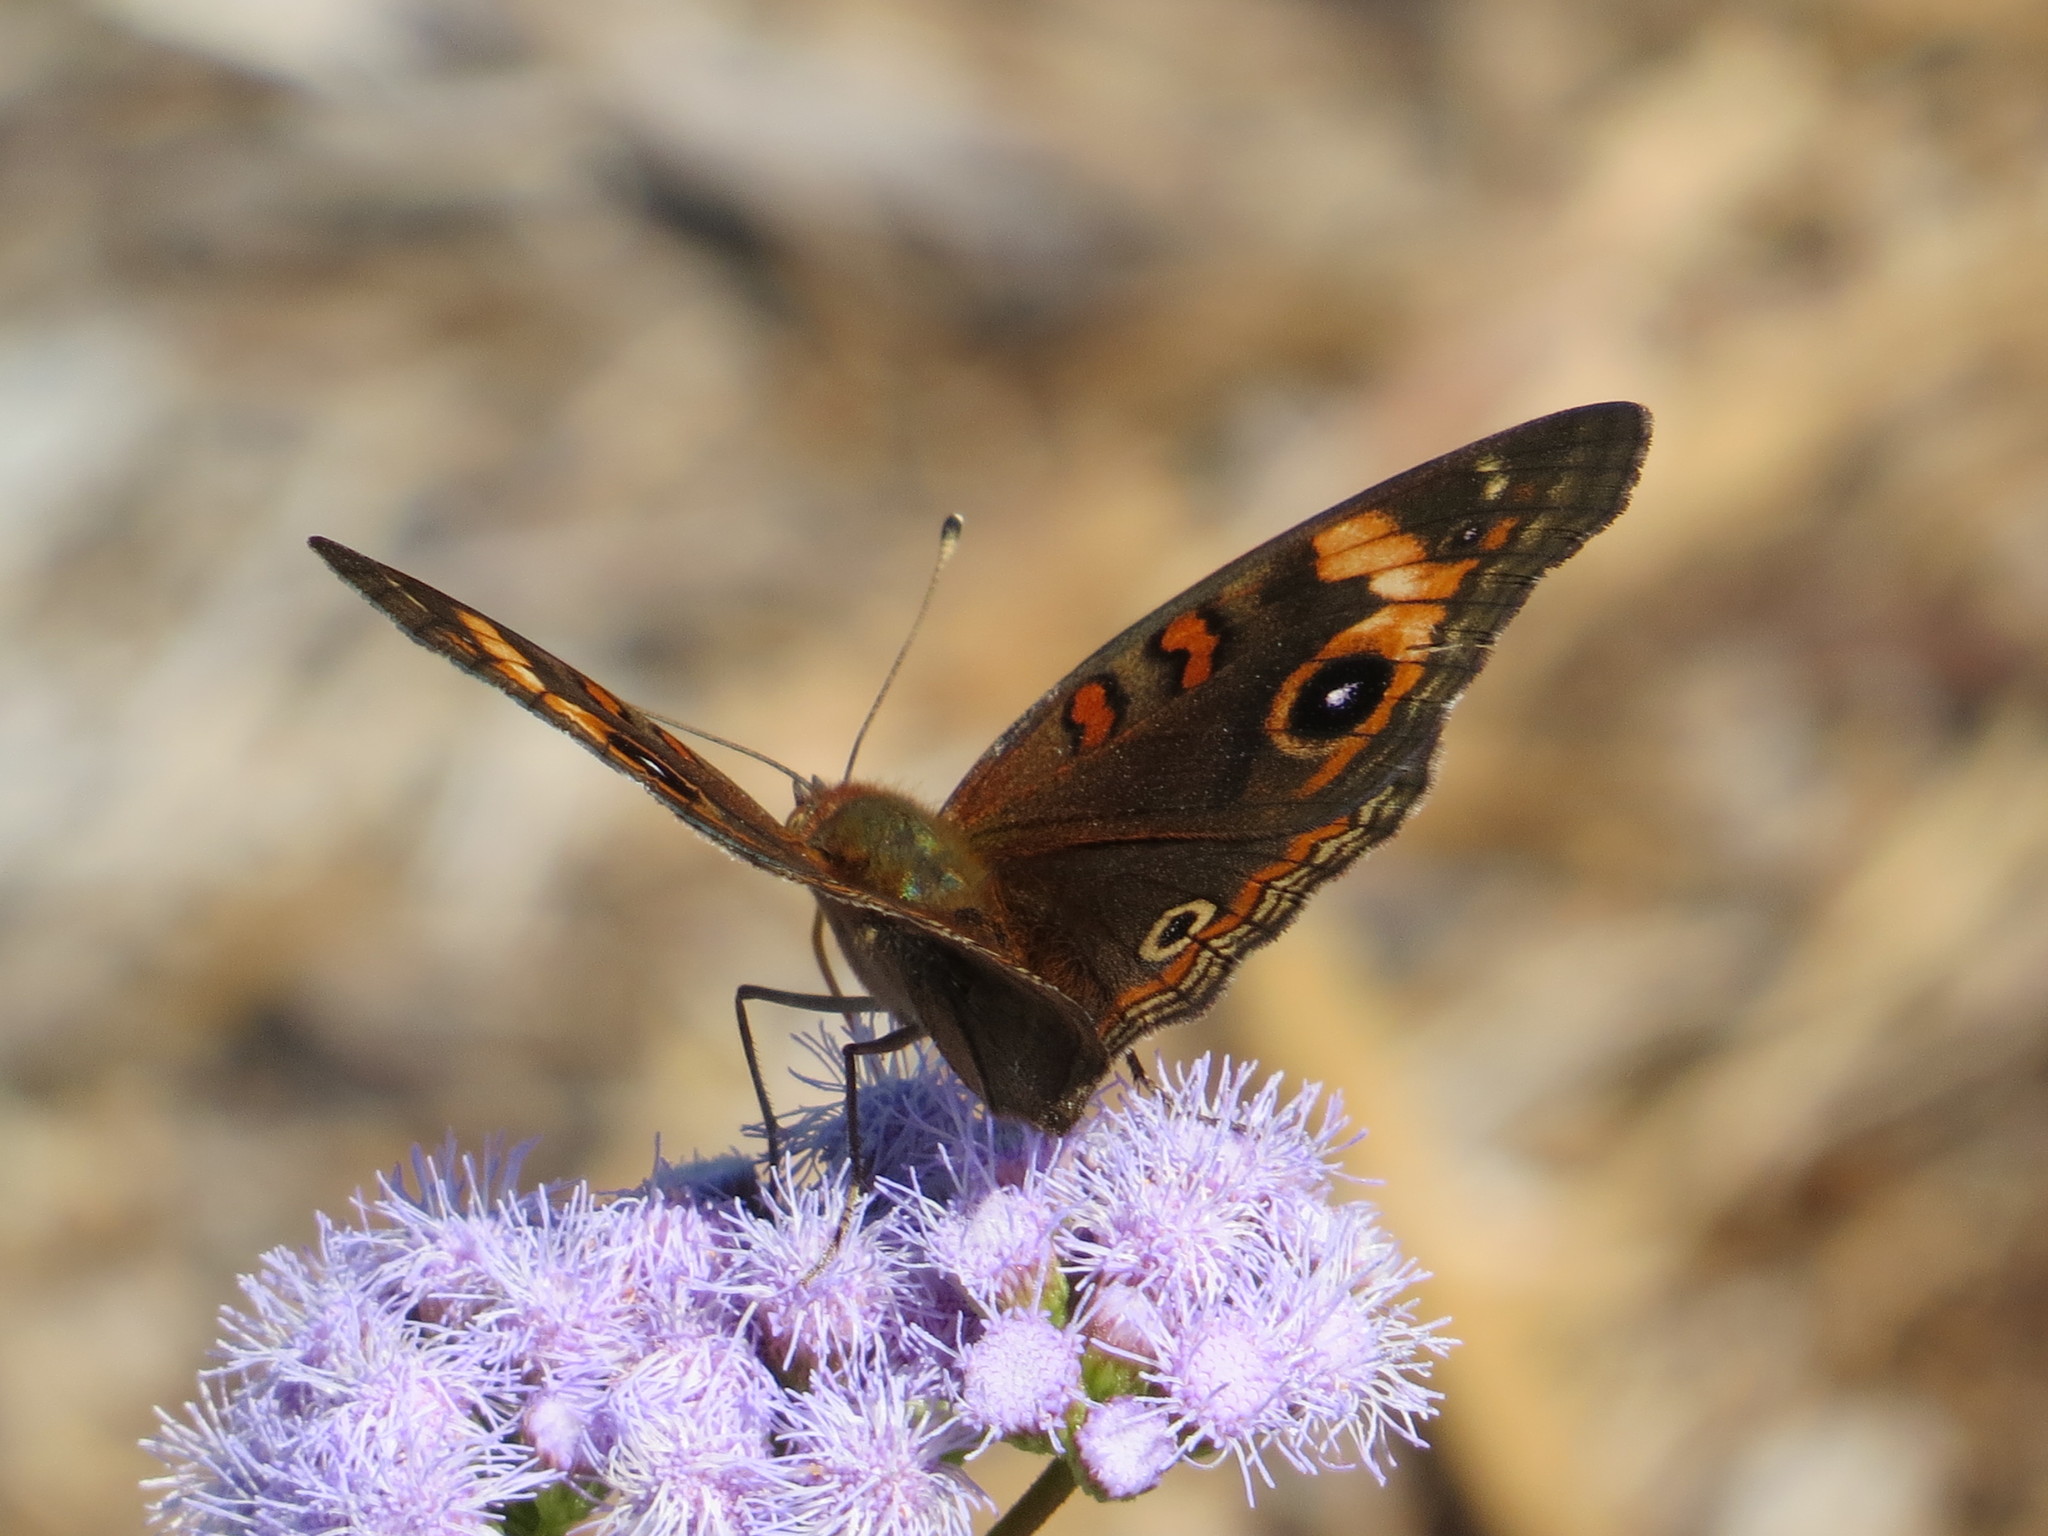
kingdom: Animalia
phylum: Arthropoda
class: Insecta
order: Lepidoptera
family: Nymphalidae
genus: Junonia
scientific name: Junonia neildi
